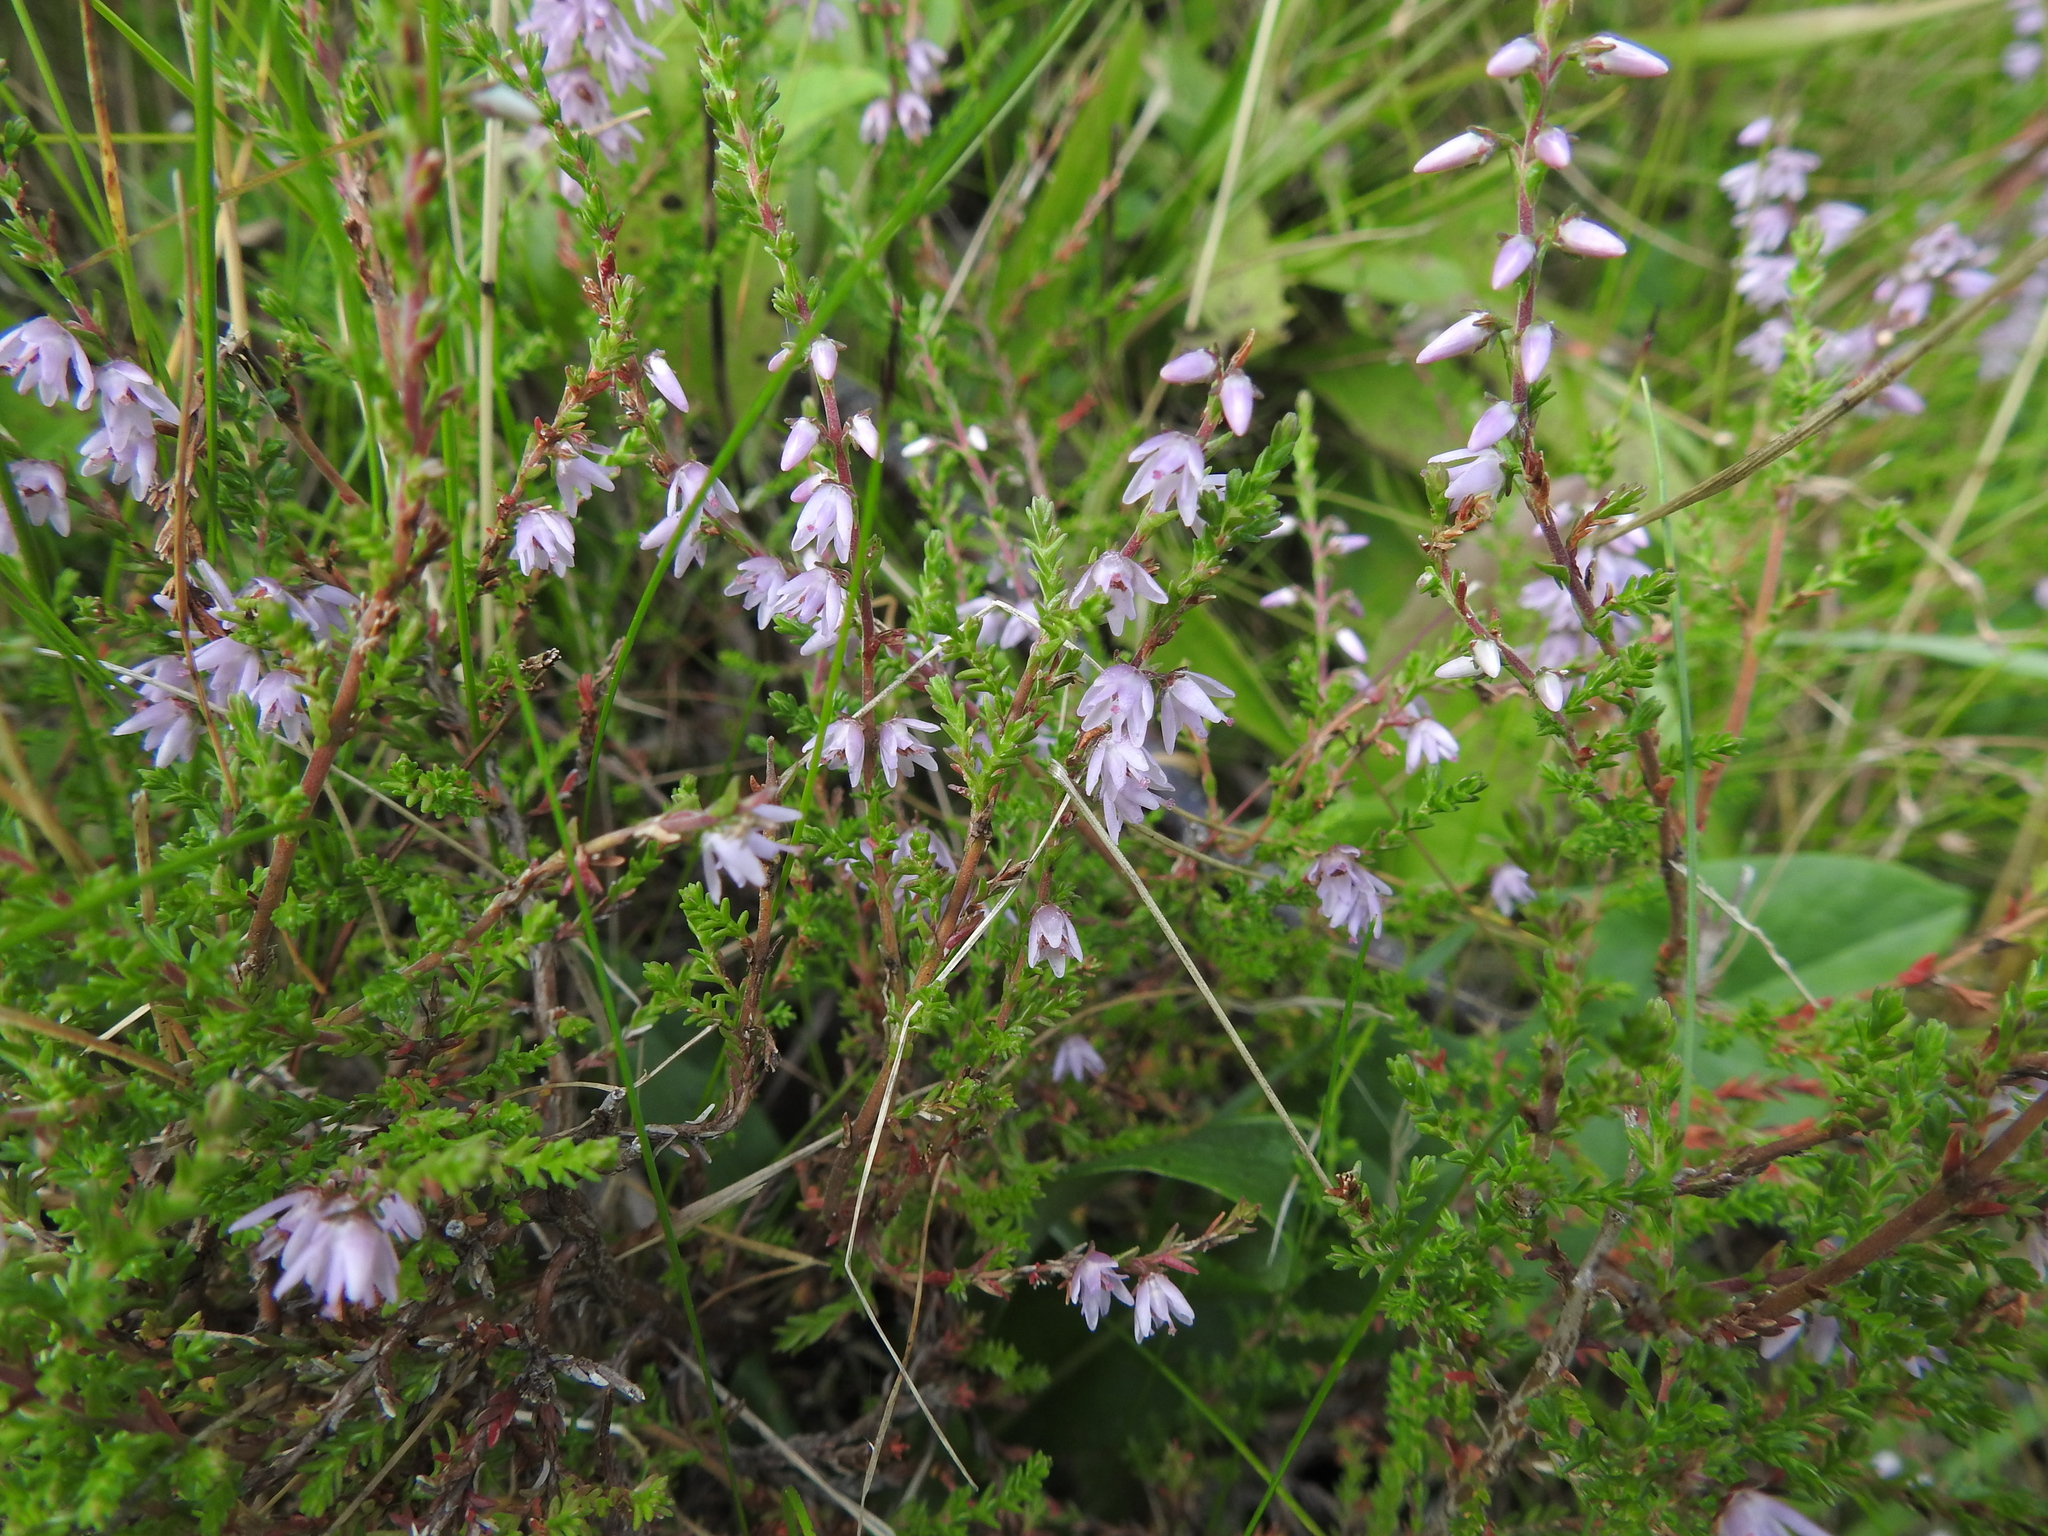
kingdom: Plantae
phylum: Tracheophyta
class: Magnoliopsida
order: Ericales
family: Ericaceae
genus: Calluna
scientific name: Calluna vulgaris
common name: Heather
